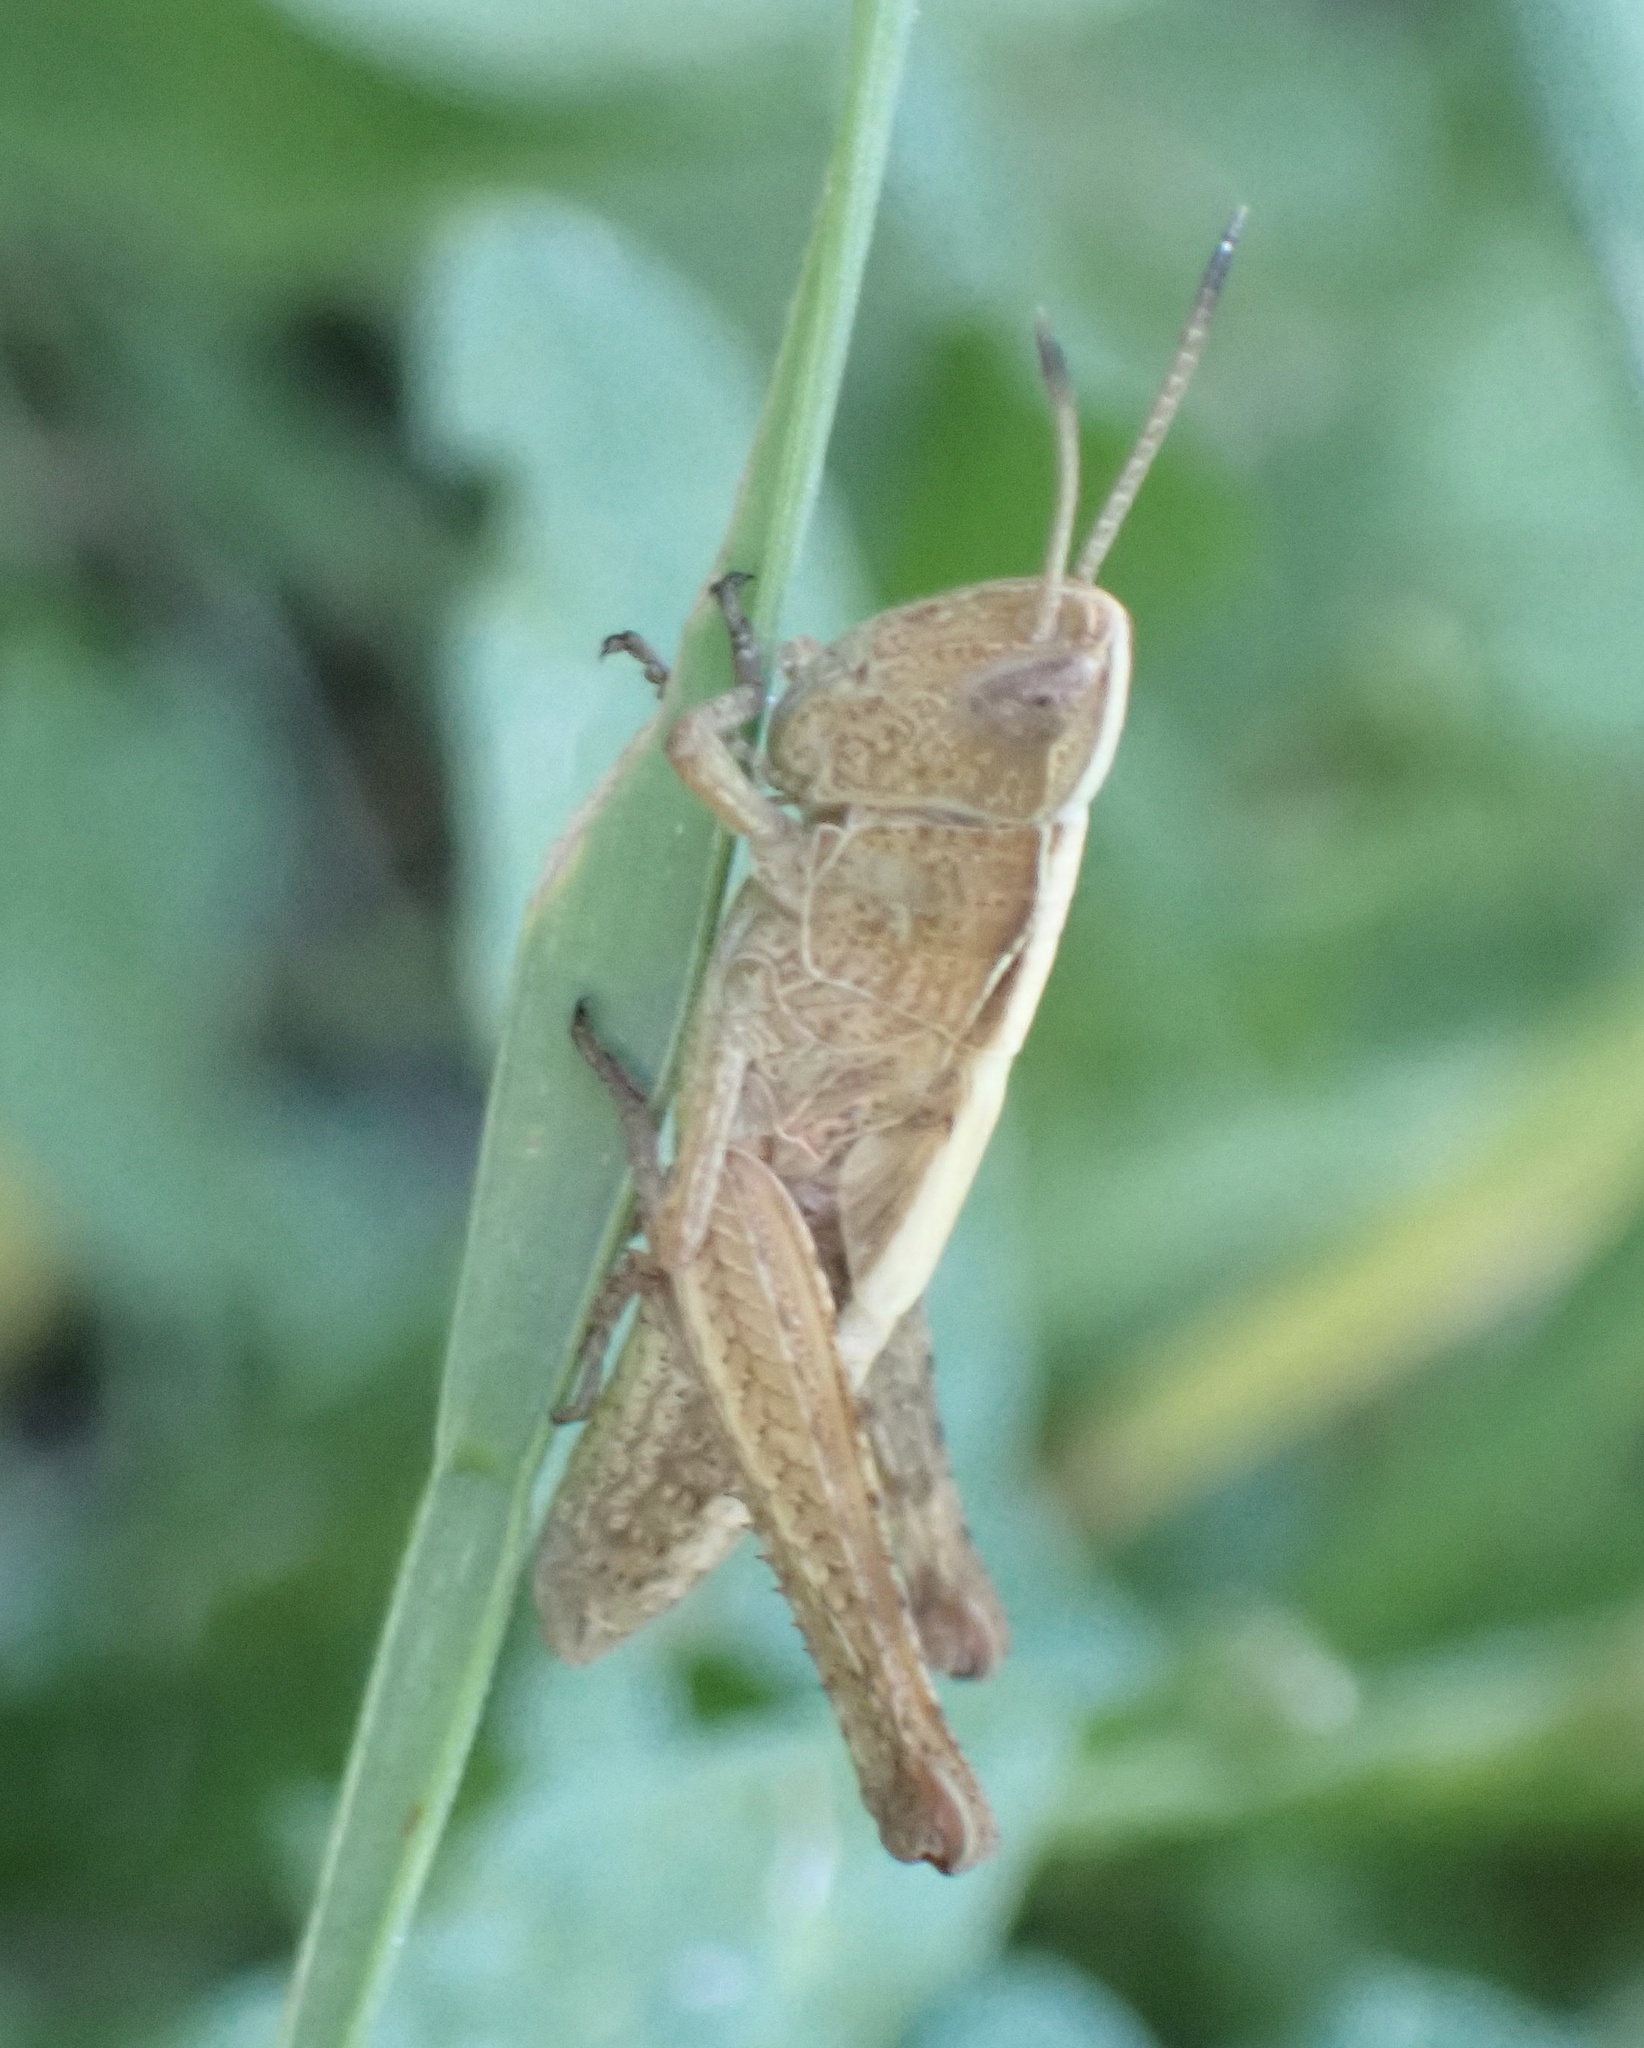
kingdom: Animalia
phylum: Arthropoda
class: Insecta
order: Orthoptera
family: Acrididae
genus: Gomphocerippus
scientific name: Gomphocerippus rufus
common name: Rufous grasshopper
